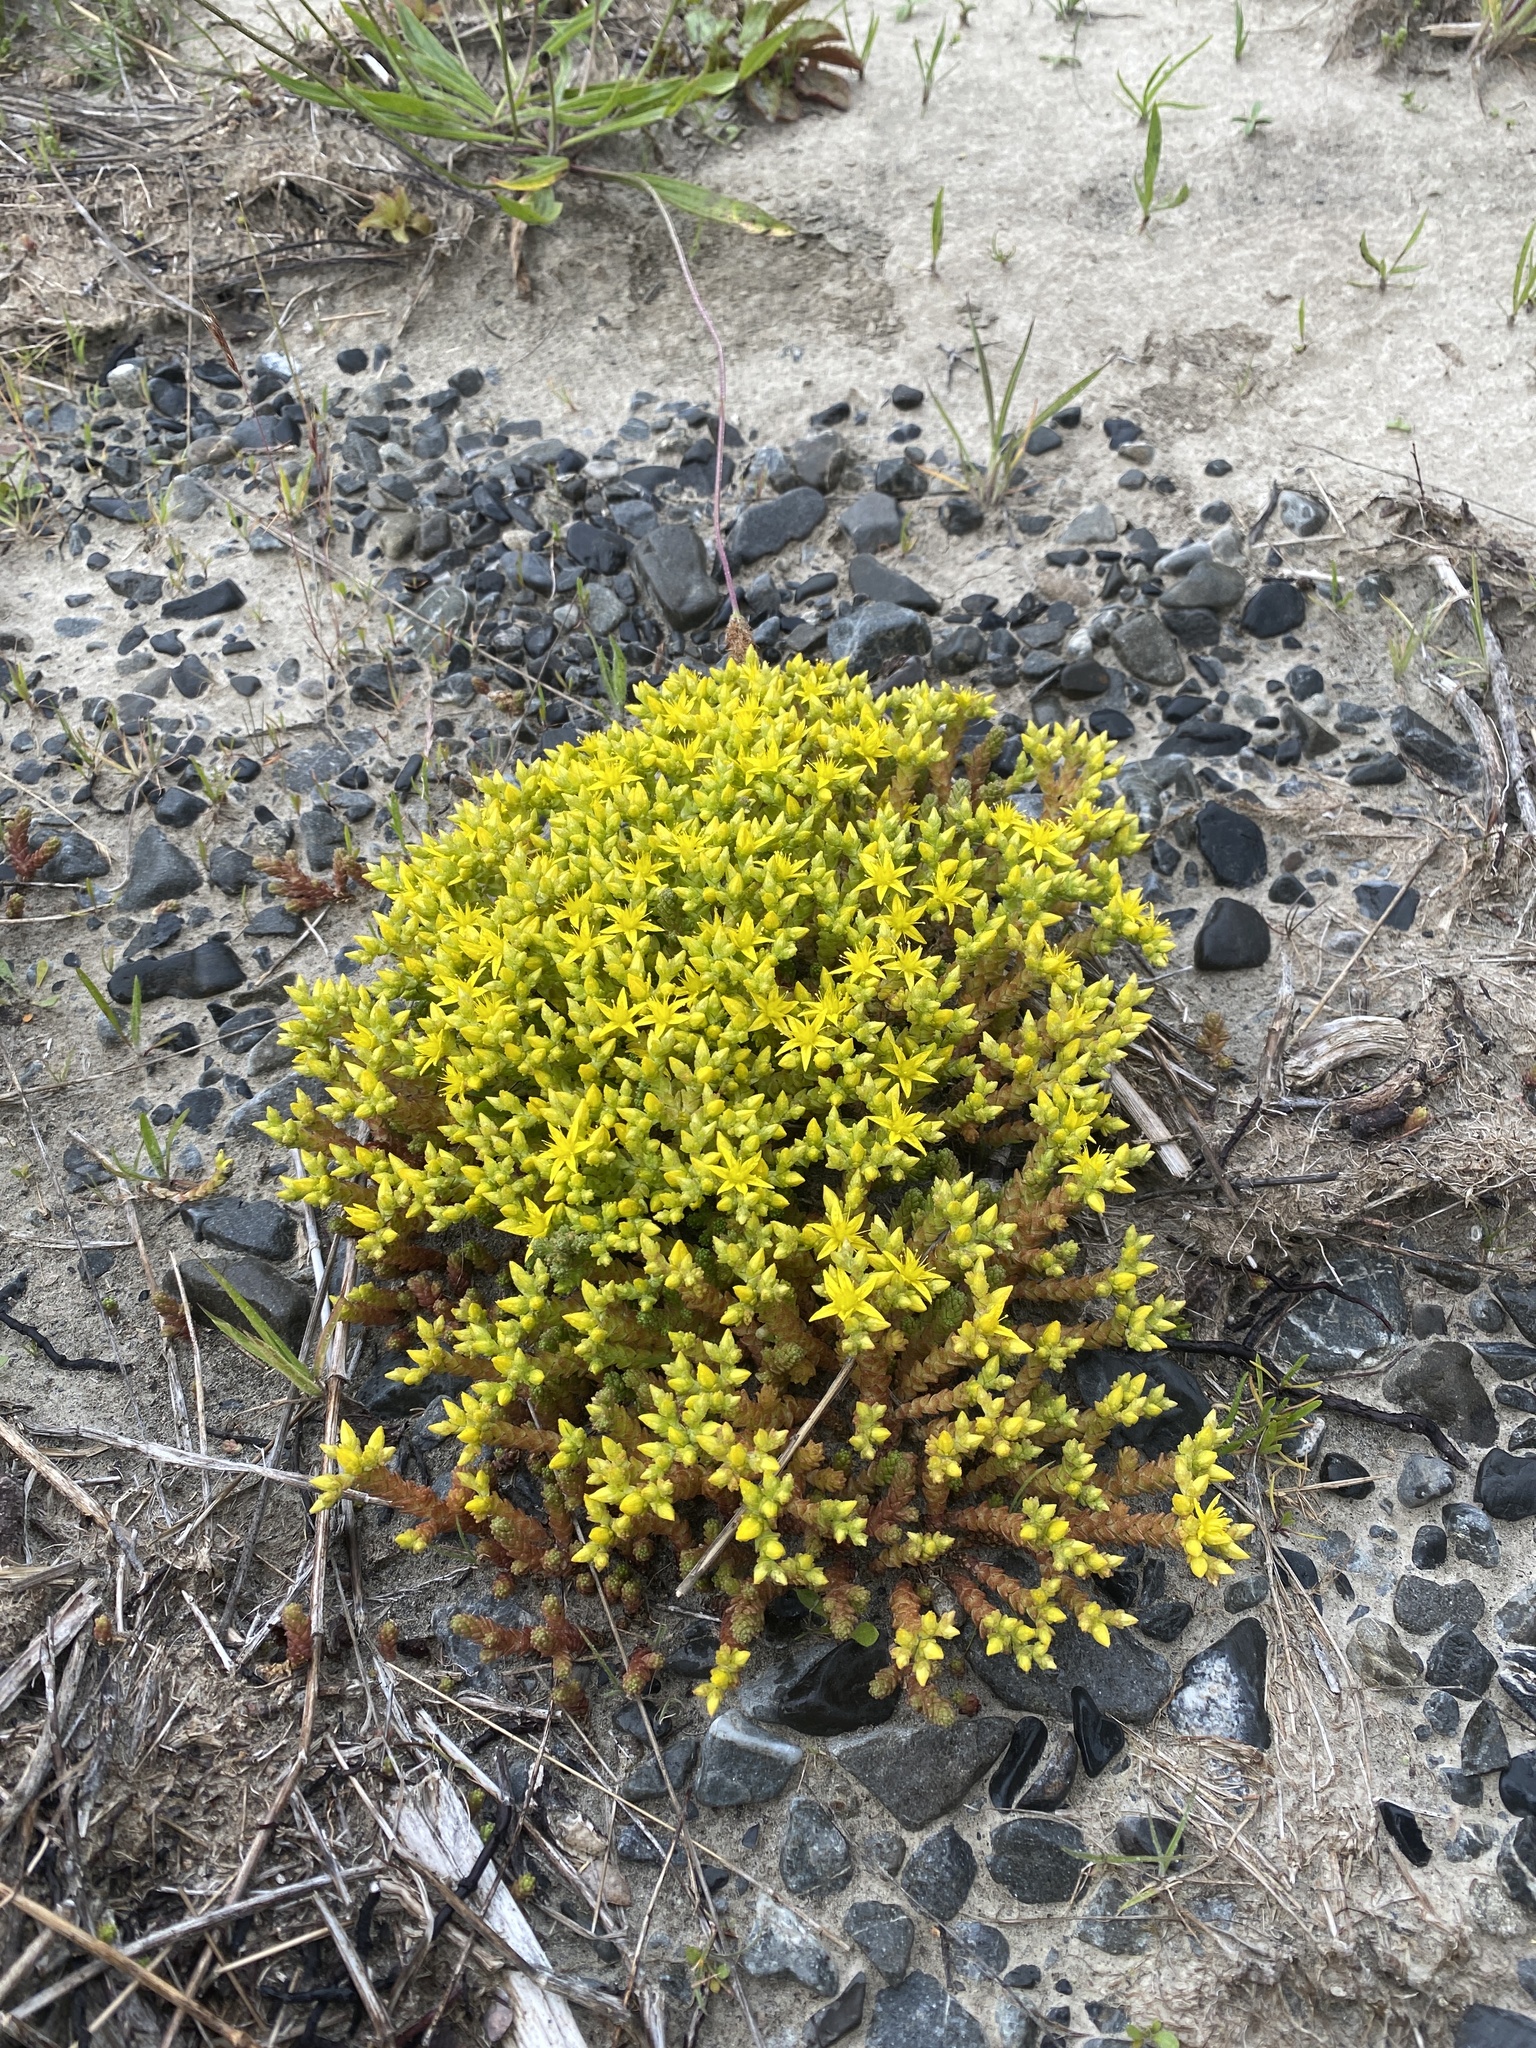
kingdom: Plantae
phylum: Tracheophyta
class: Magnoliopsida
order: Saxifragales
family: Crassulaceae
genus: Sedum
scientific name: Sedum acre
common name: Biting stonecrop
